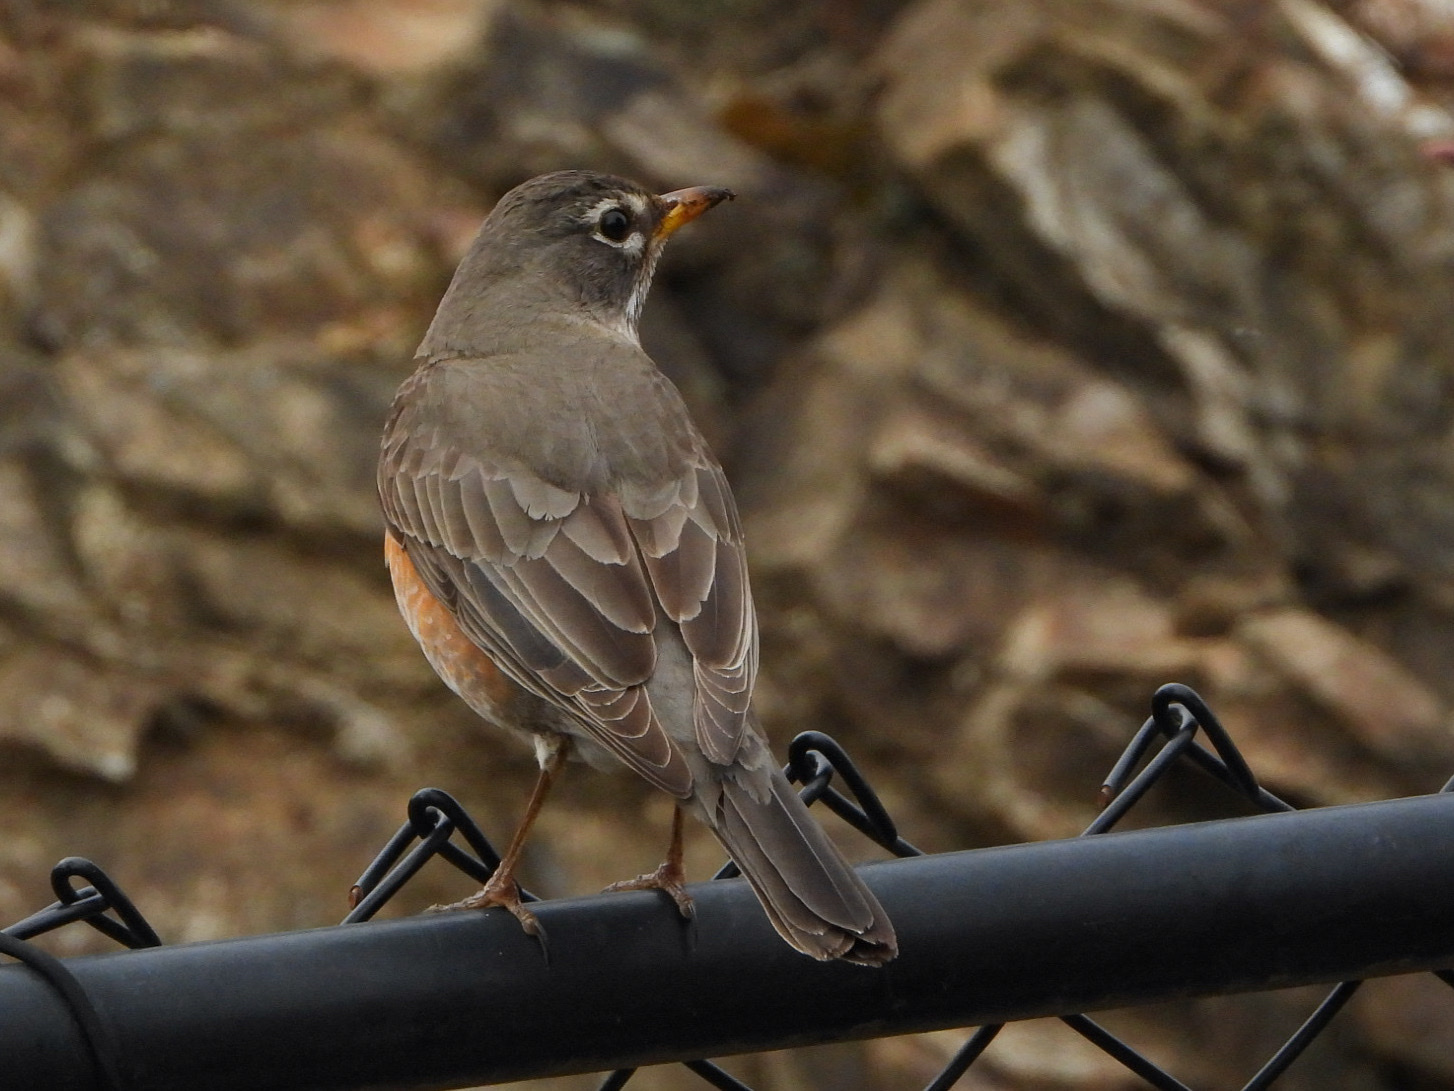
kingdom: Animalia
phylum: Chordata
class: Aves
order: Passeriformes
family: Turdidae
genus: Turdus
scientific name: Turdus migratorius
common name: American robin
